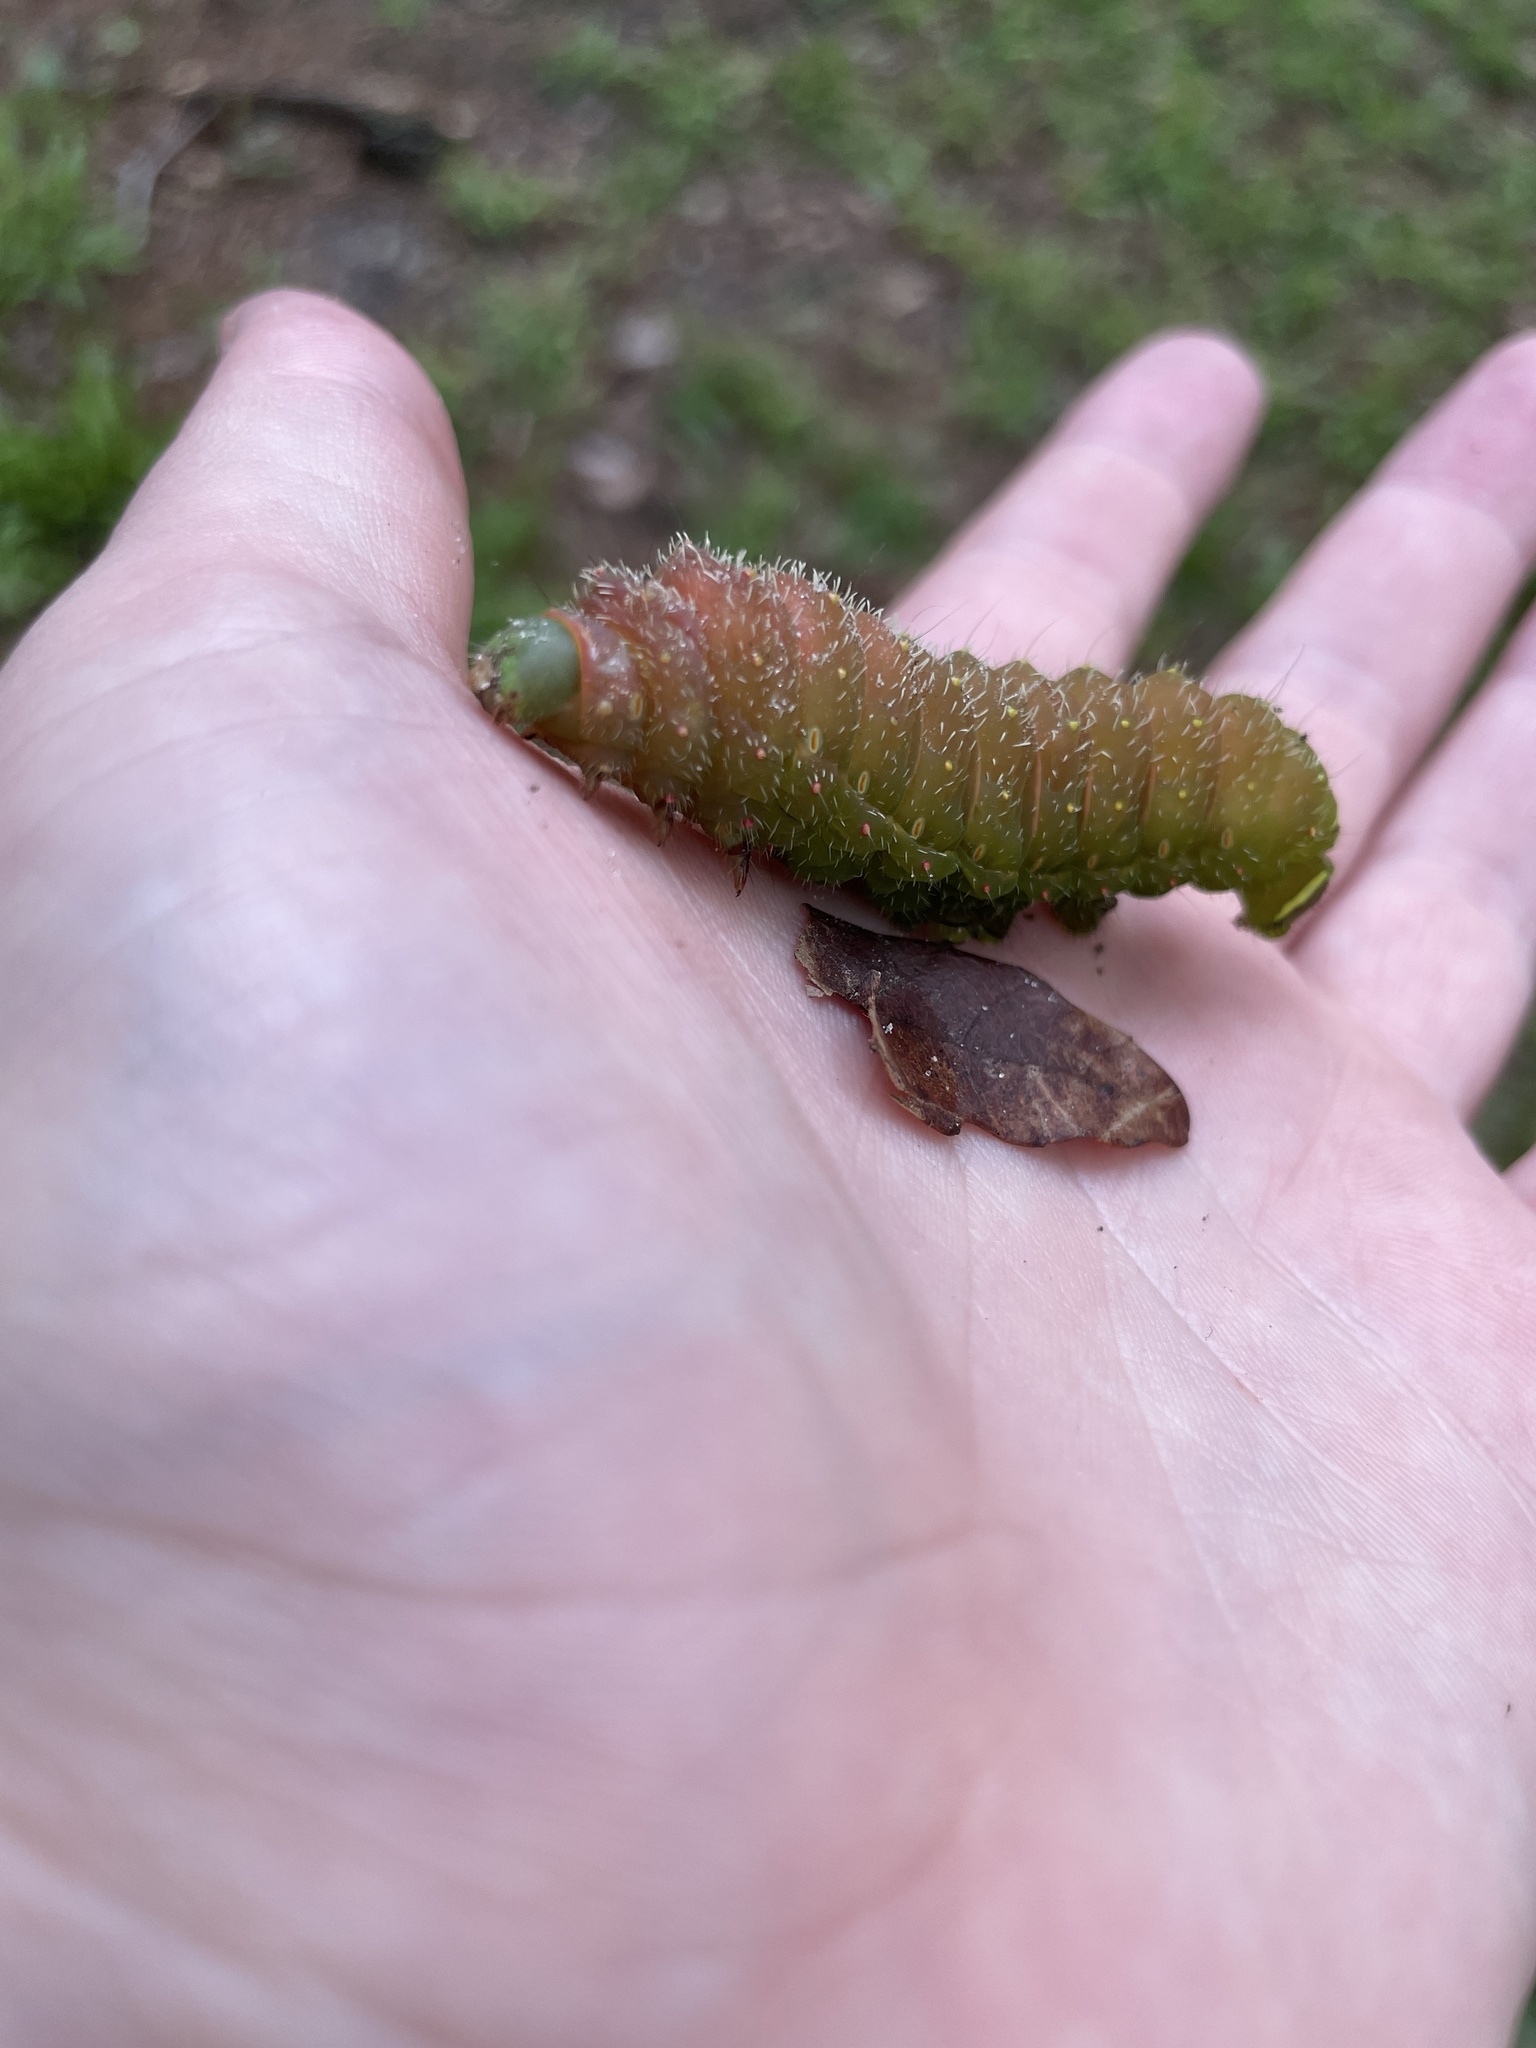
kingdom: Animalia
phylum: Arthropoda
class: Insecta
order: Lepidoptera
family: Saturniidae
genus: Actias
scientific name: Actias luna
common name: Luna moth
